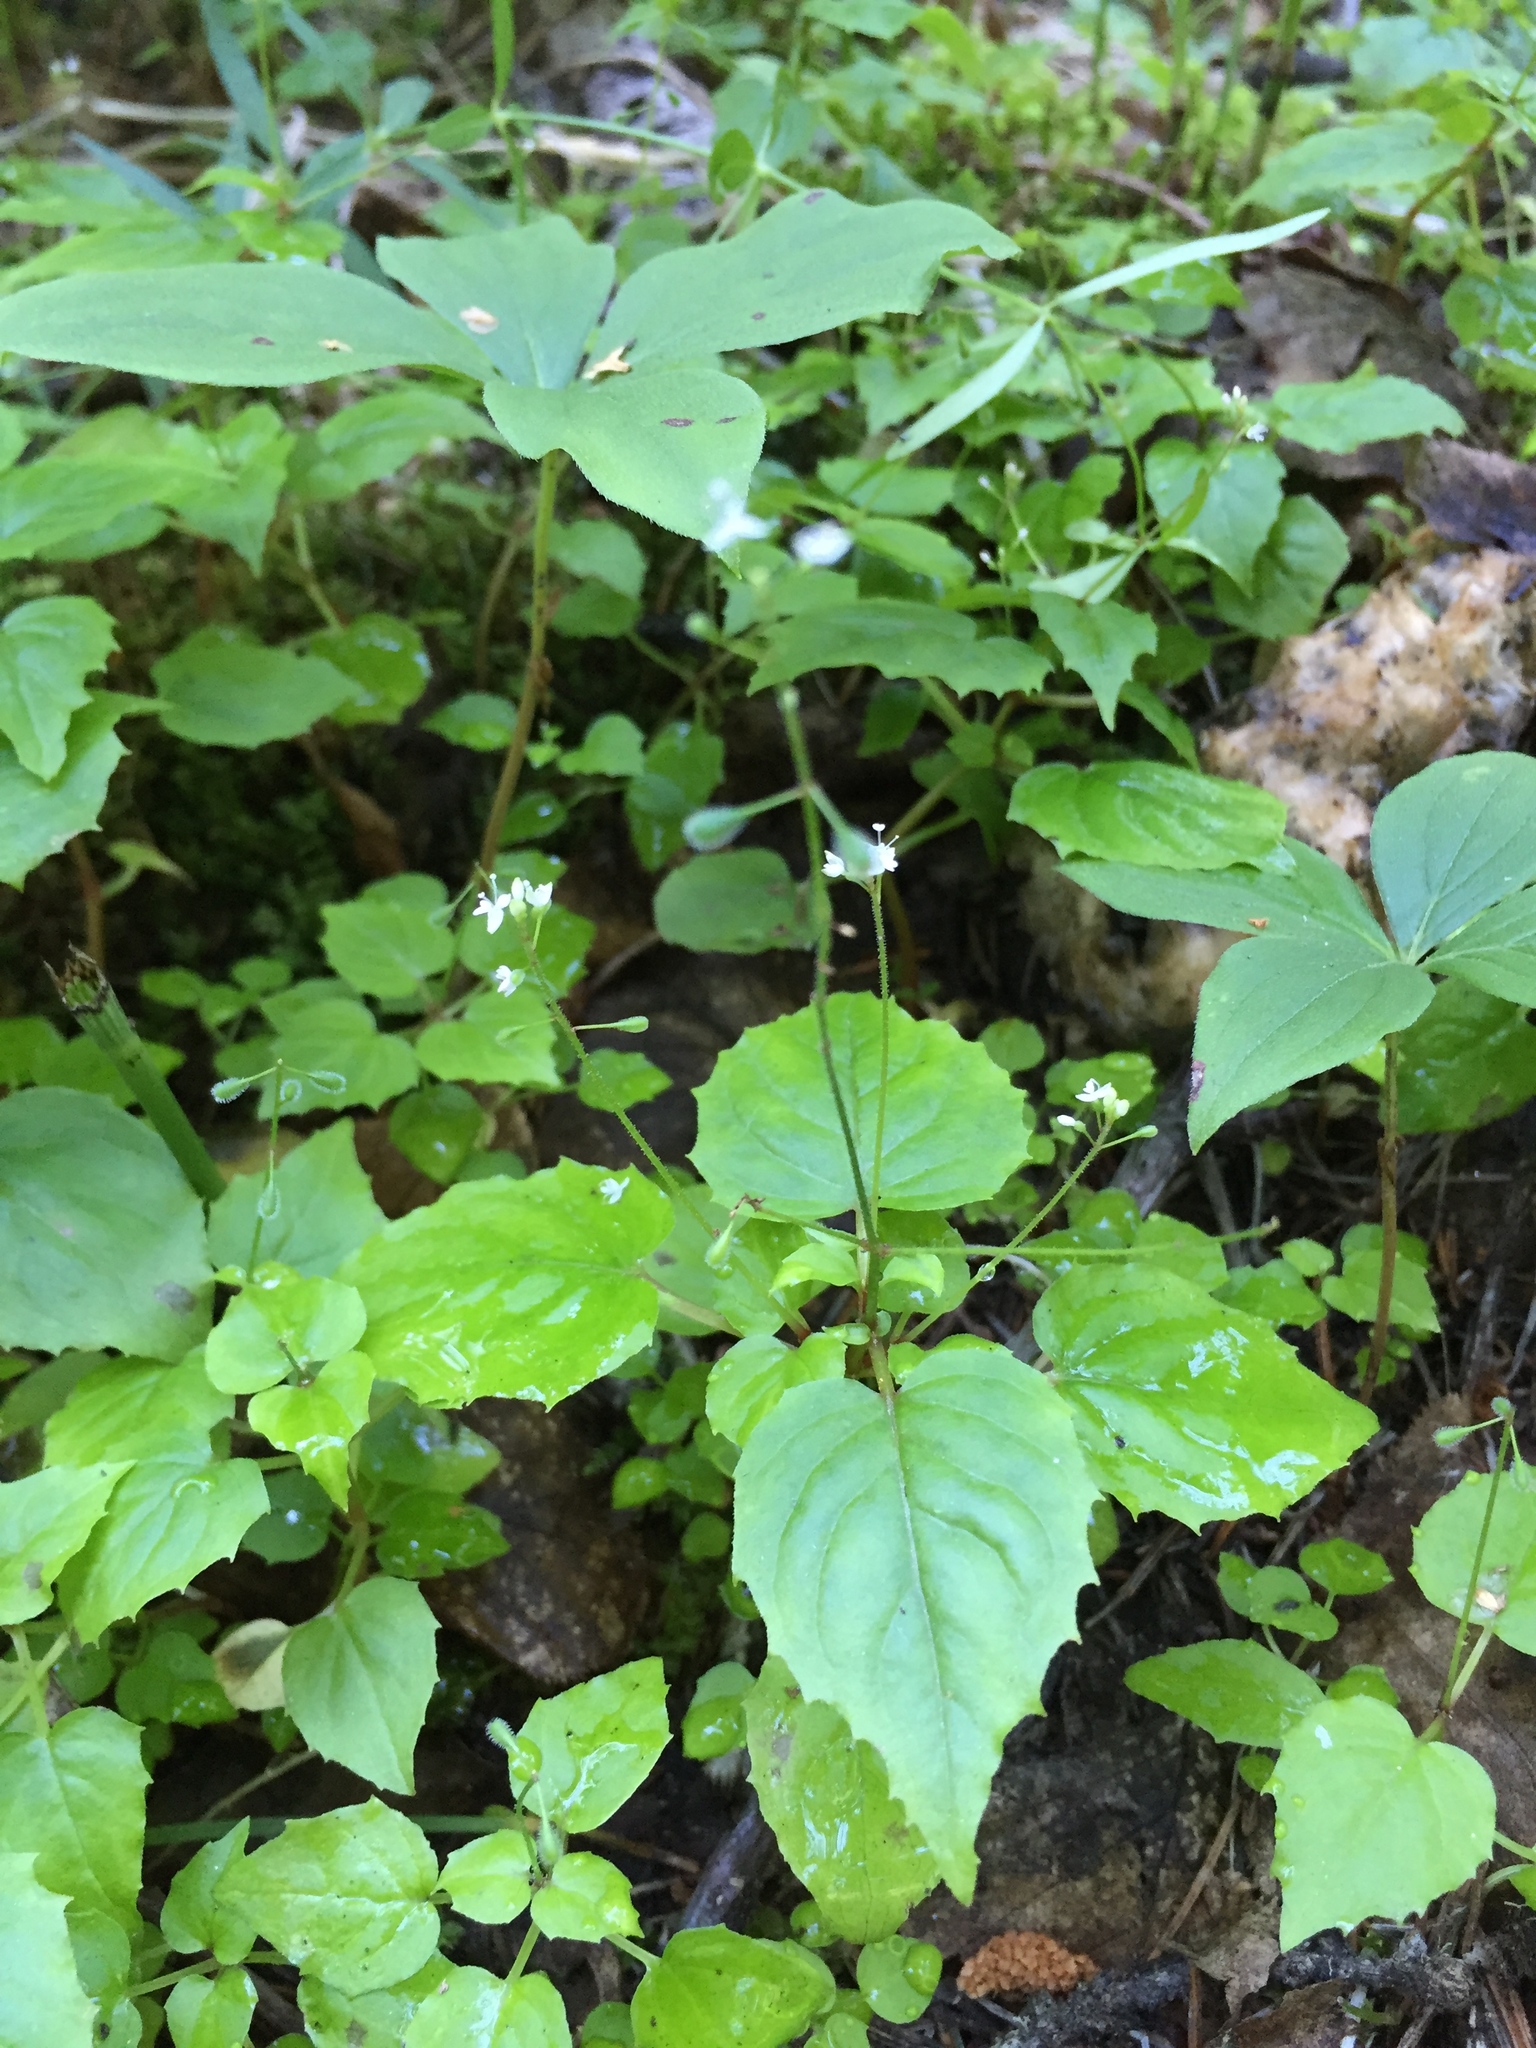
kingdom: Plantae
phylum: Tracheophyta
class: Magnoliopsida
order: Myrtales
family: Onagraceae
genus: Circaea
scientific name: Circaea alpina
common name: Alpine enchanter's-nightshade
